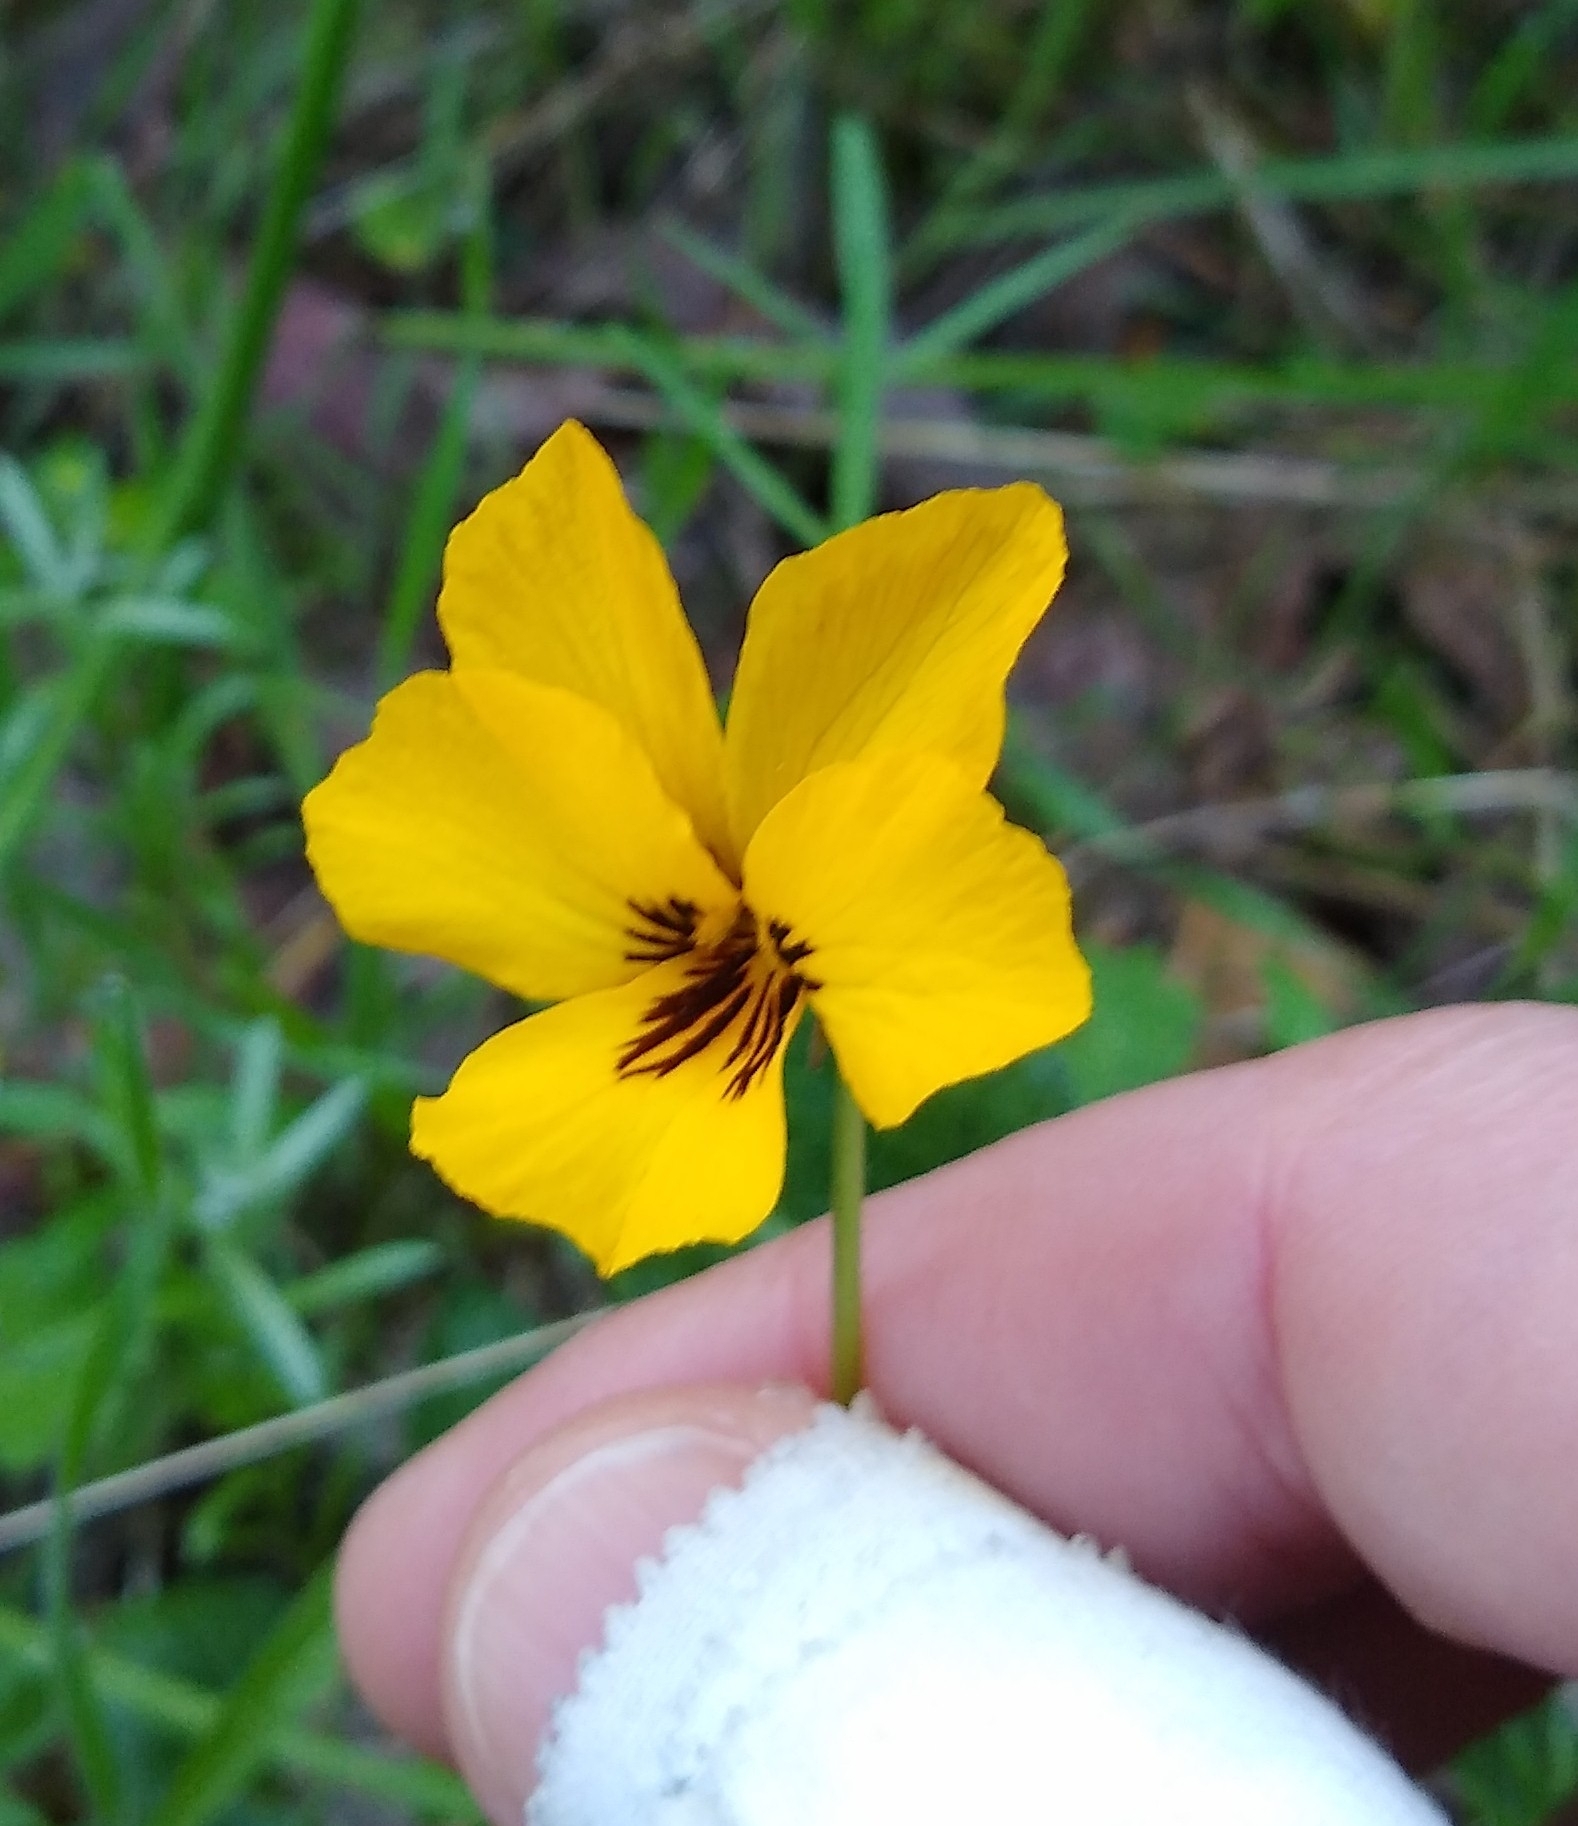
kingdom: Plantae
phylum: Tracheophyta
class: Magnoliopsida
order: Malpighiales
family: Violaceae
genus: Viola
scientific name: Viola pedunculata
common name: California golden violet
